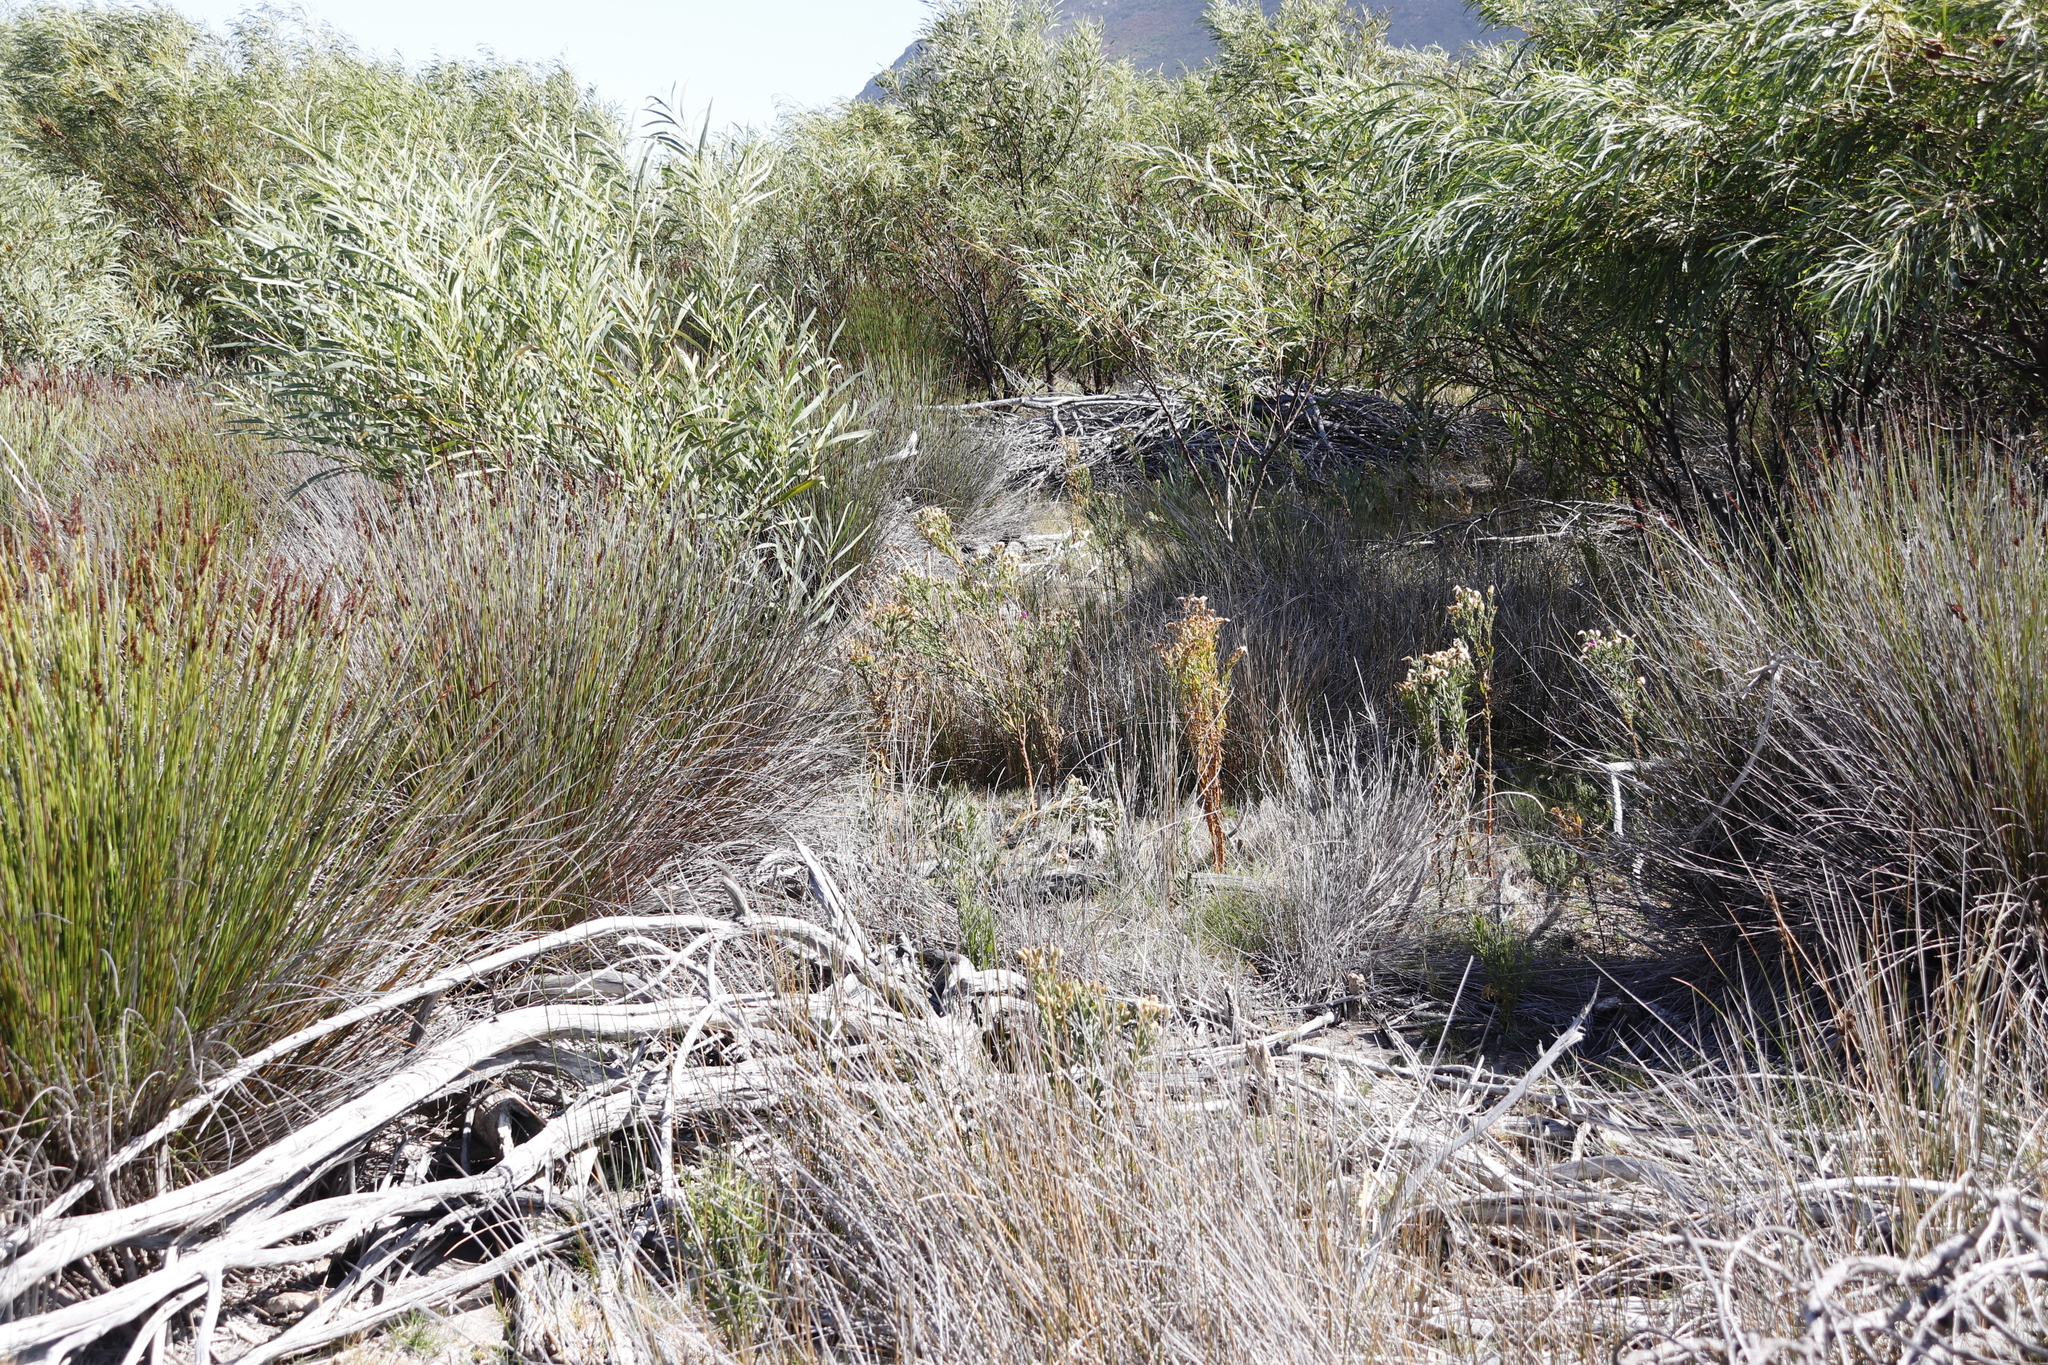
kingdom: Plantae
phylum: Tracheophyta
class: Magnoliopsida
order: Gentianales
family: Gentianaceae
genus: Orphium
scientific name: Orphium frutescens
